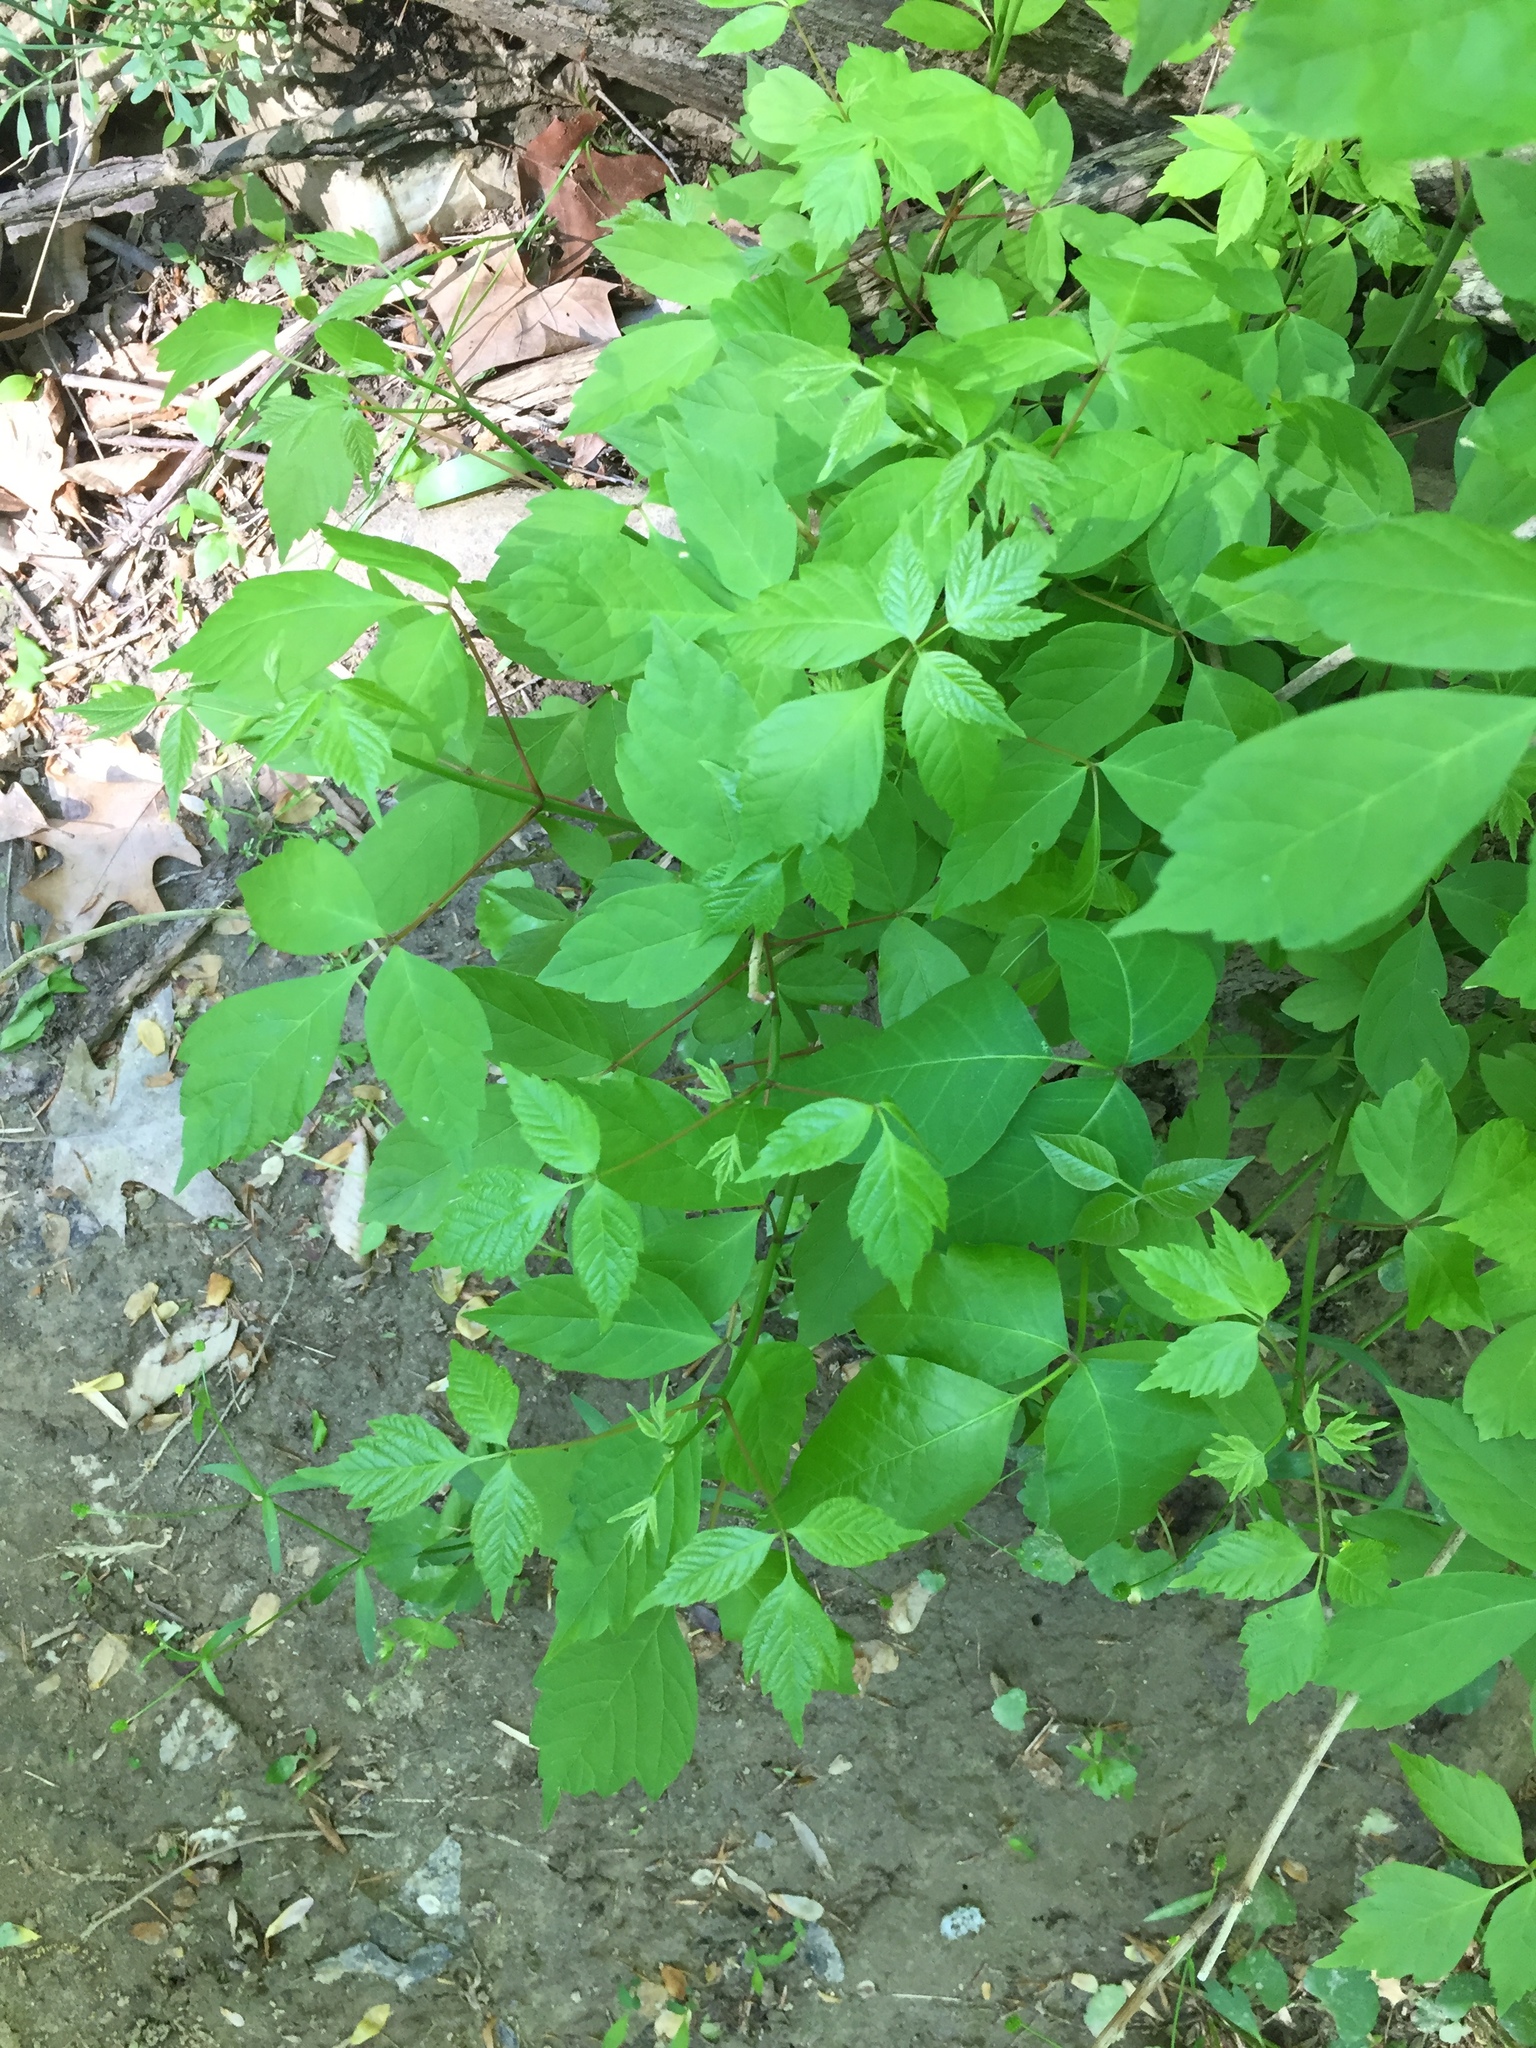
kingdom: Plantae
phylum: Tracheophyta
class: Magnoliopsida
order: Sapindales
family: Sapindaceae
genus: Acer
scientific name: Acer negundo
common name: Ashleaf maple
